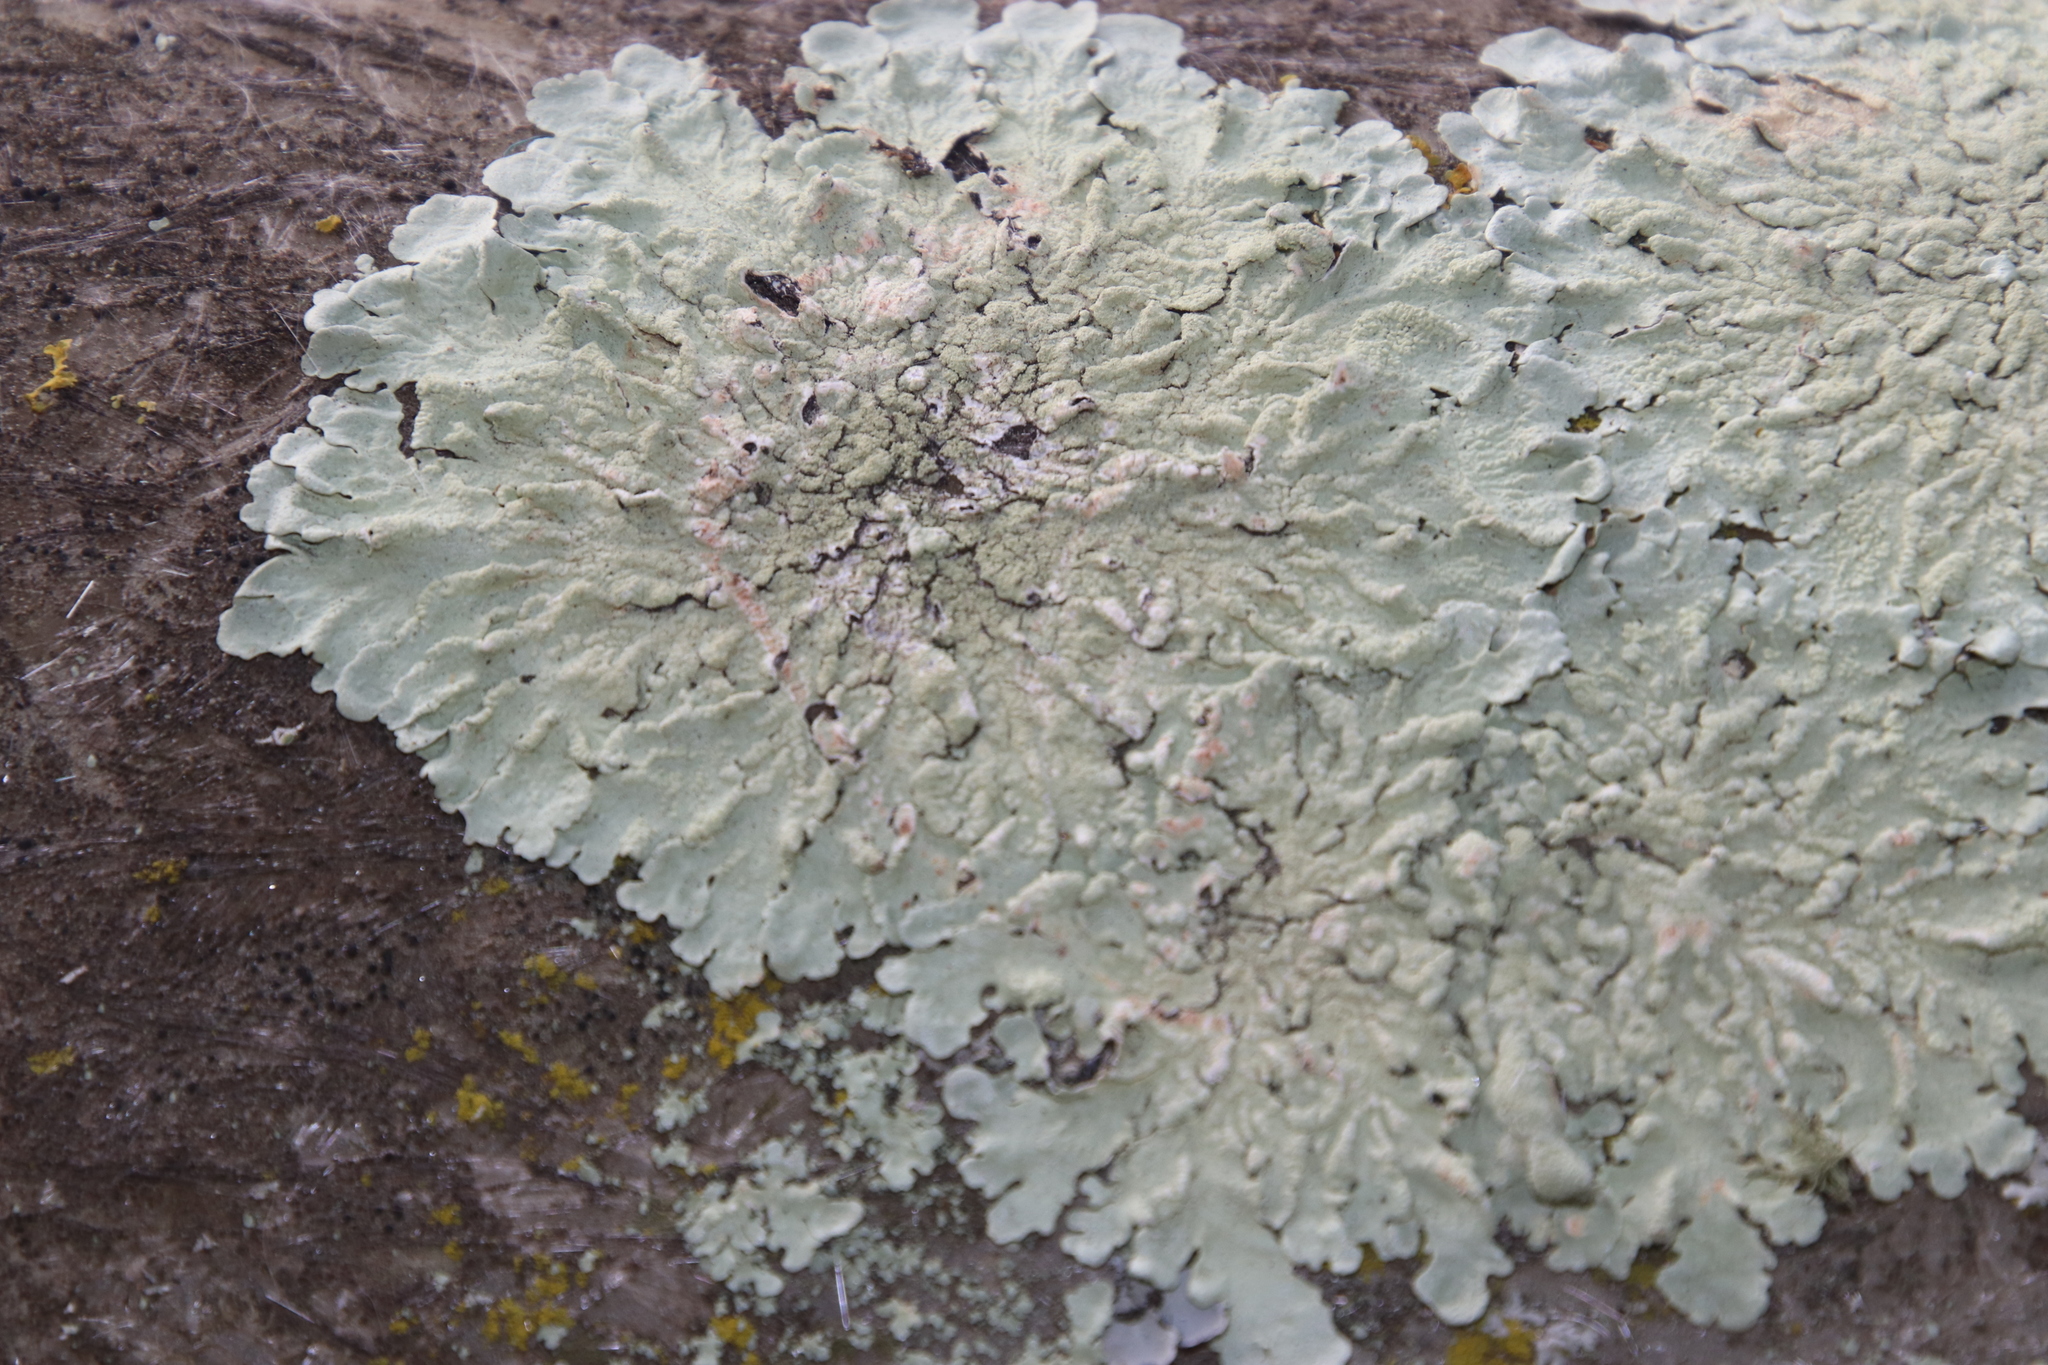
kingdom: Fungi
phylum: Ascomycota
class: Lecanoromycetes
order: Lecanorales
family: Parmeliaceae
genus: Flavoparmelia
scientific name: Flavoparmelia soredians
